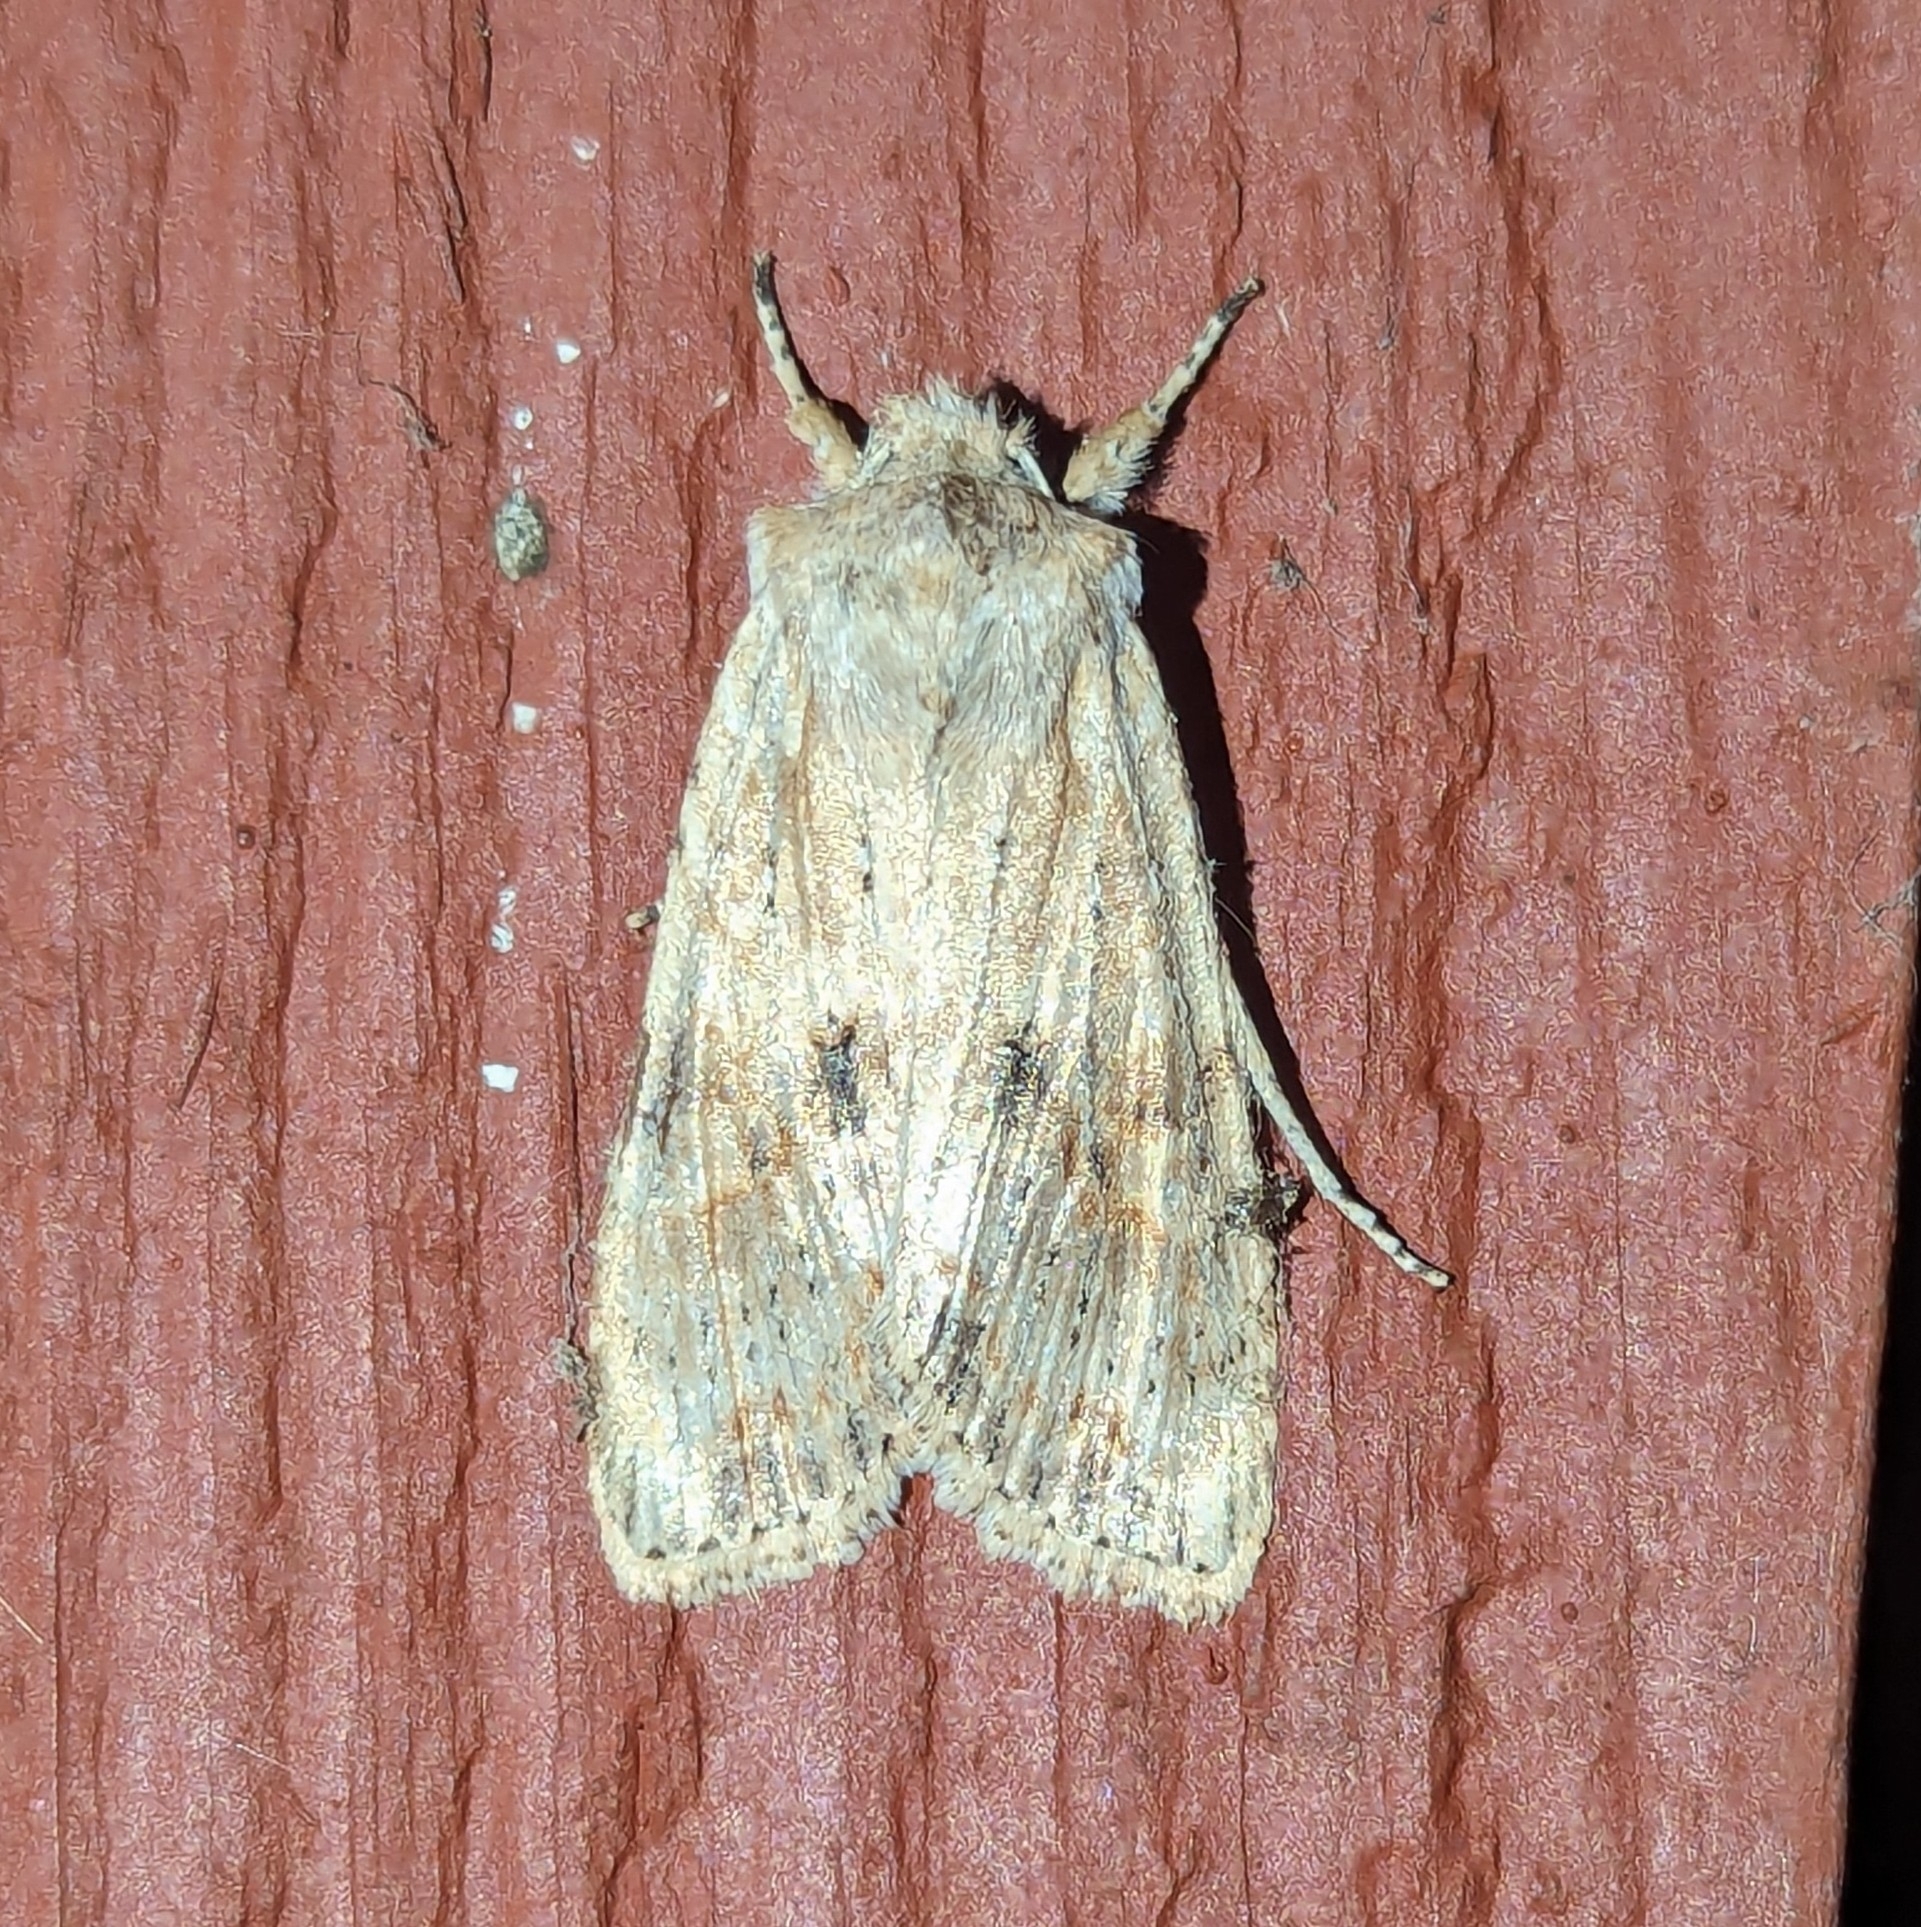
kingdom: Animalia
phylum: Arthropoda
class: Insecta
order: Lepidoptera
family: Noctuidae
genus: Lithophane
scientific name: Lithophane innominata
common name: Nameless pinion moth
